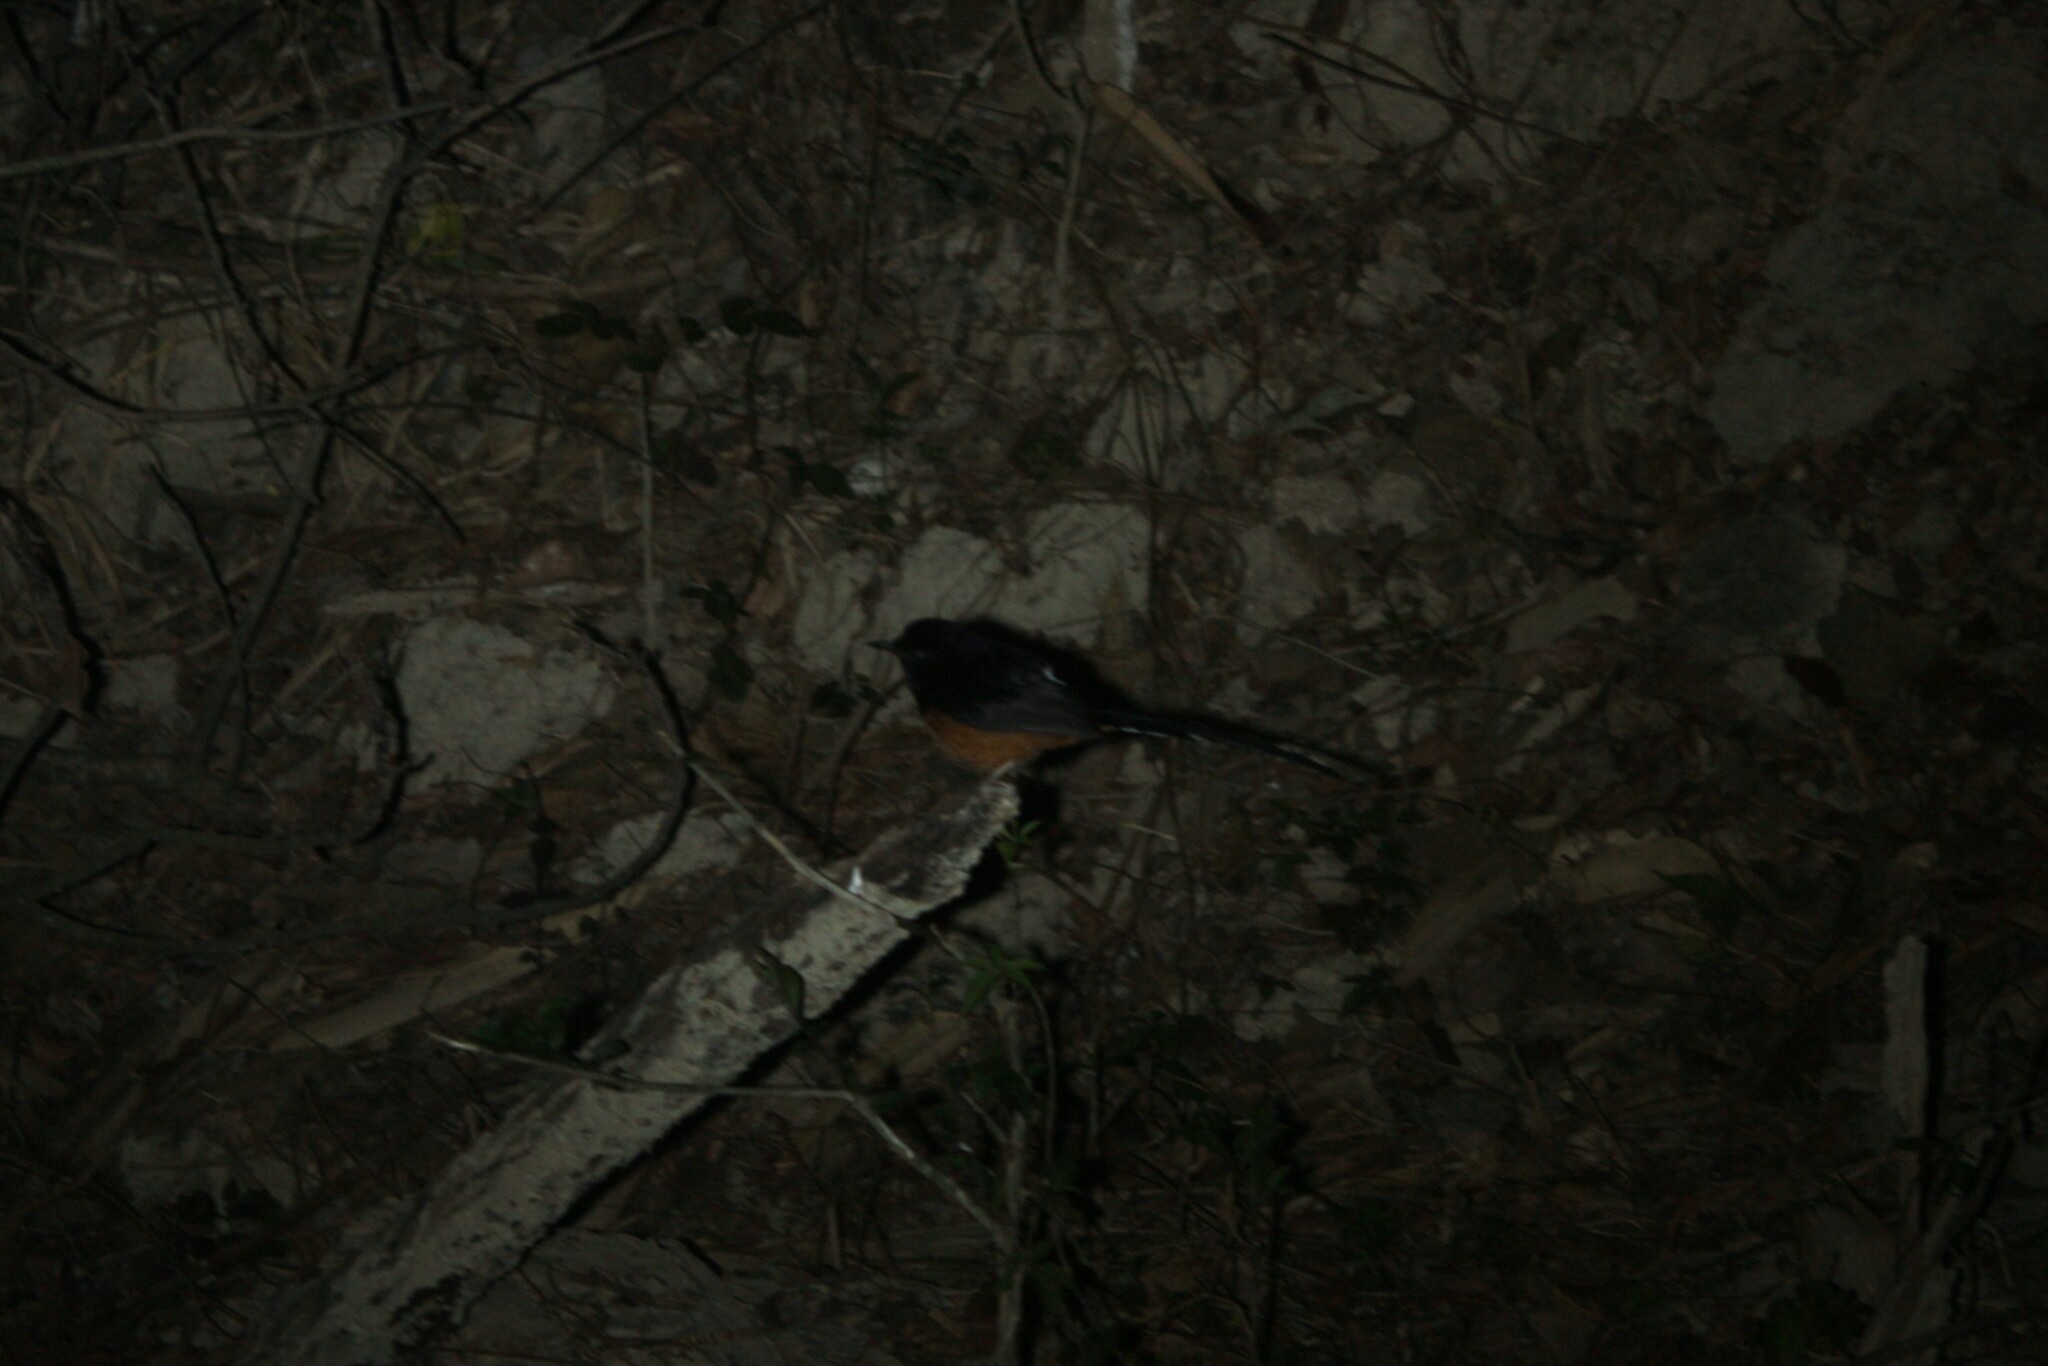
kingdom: Animalia
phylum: Chordata
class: Aves
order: Passeriformes
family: Muscicapidae
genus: Copsychus
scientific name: Copsychus malabaricus
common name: White-rumped shama
